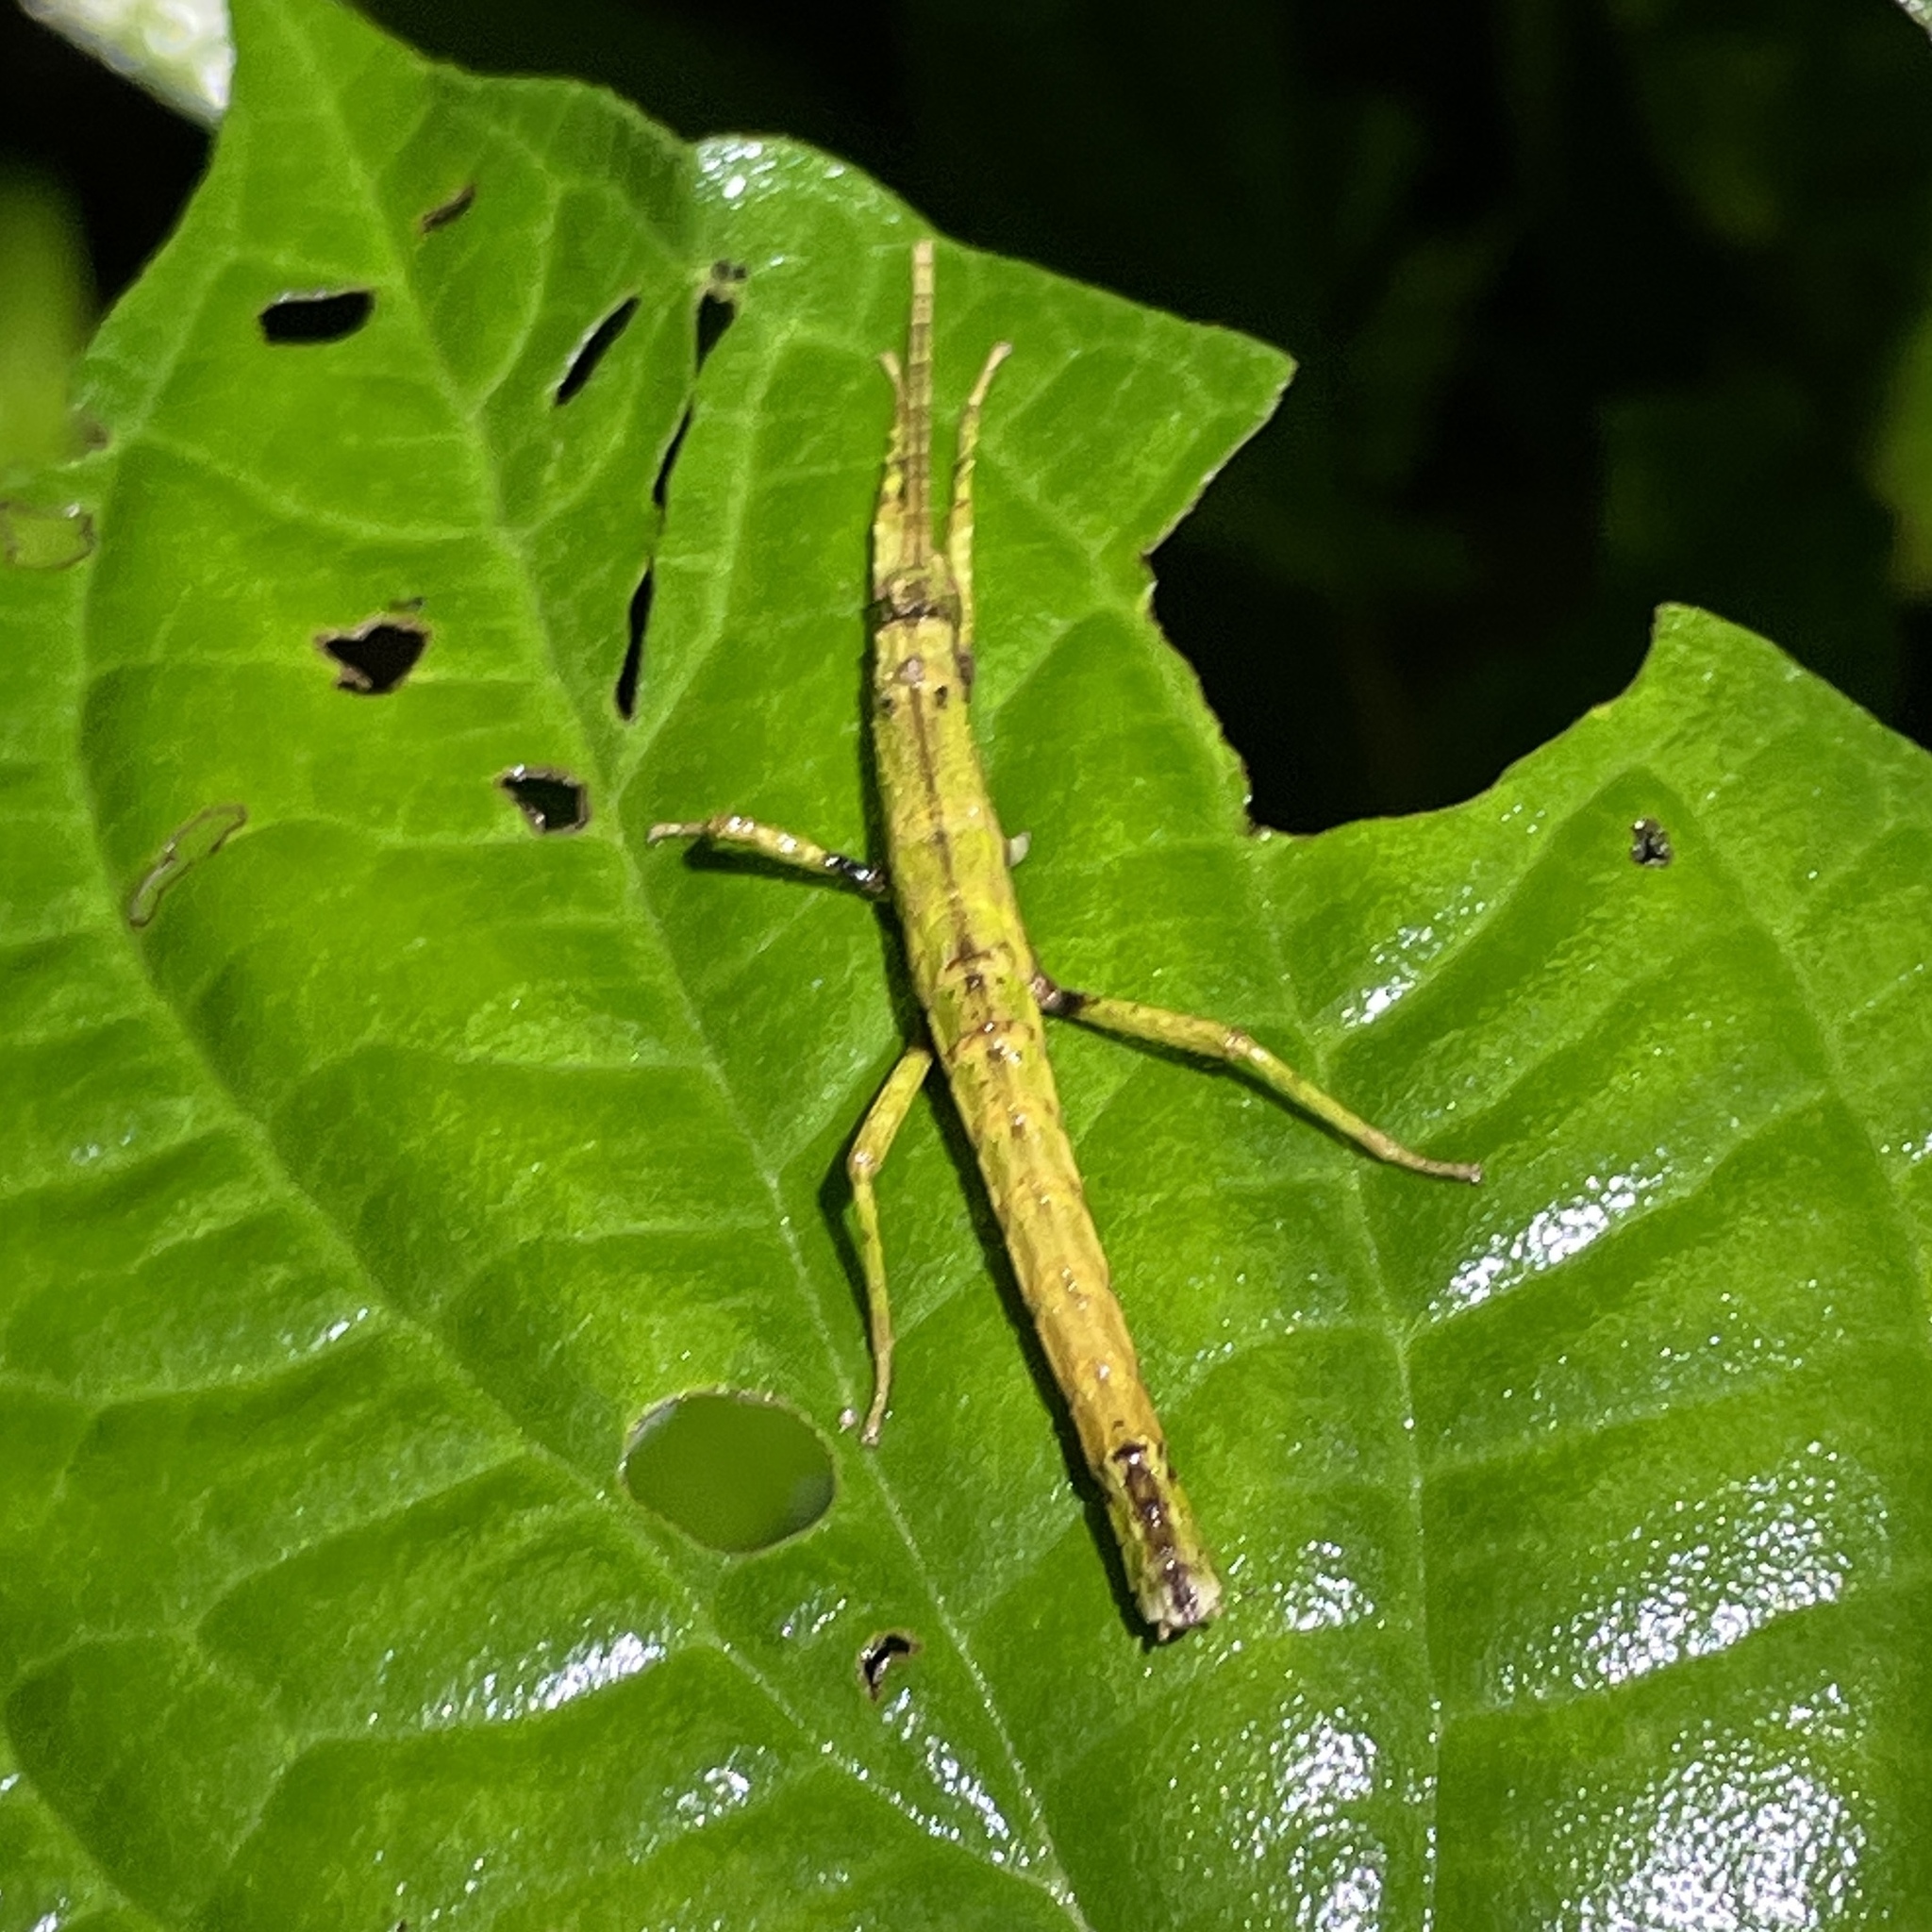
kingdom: Animalia
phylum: Arthropoda
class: Insecta
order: Phasmida
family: Pseudophasmatidae
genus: Creoxylus
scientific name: Creoxylus spinosus
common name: Trinidad log stick insect
